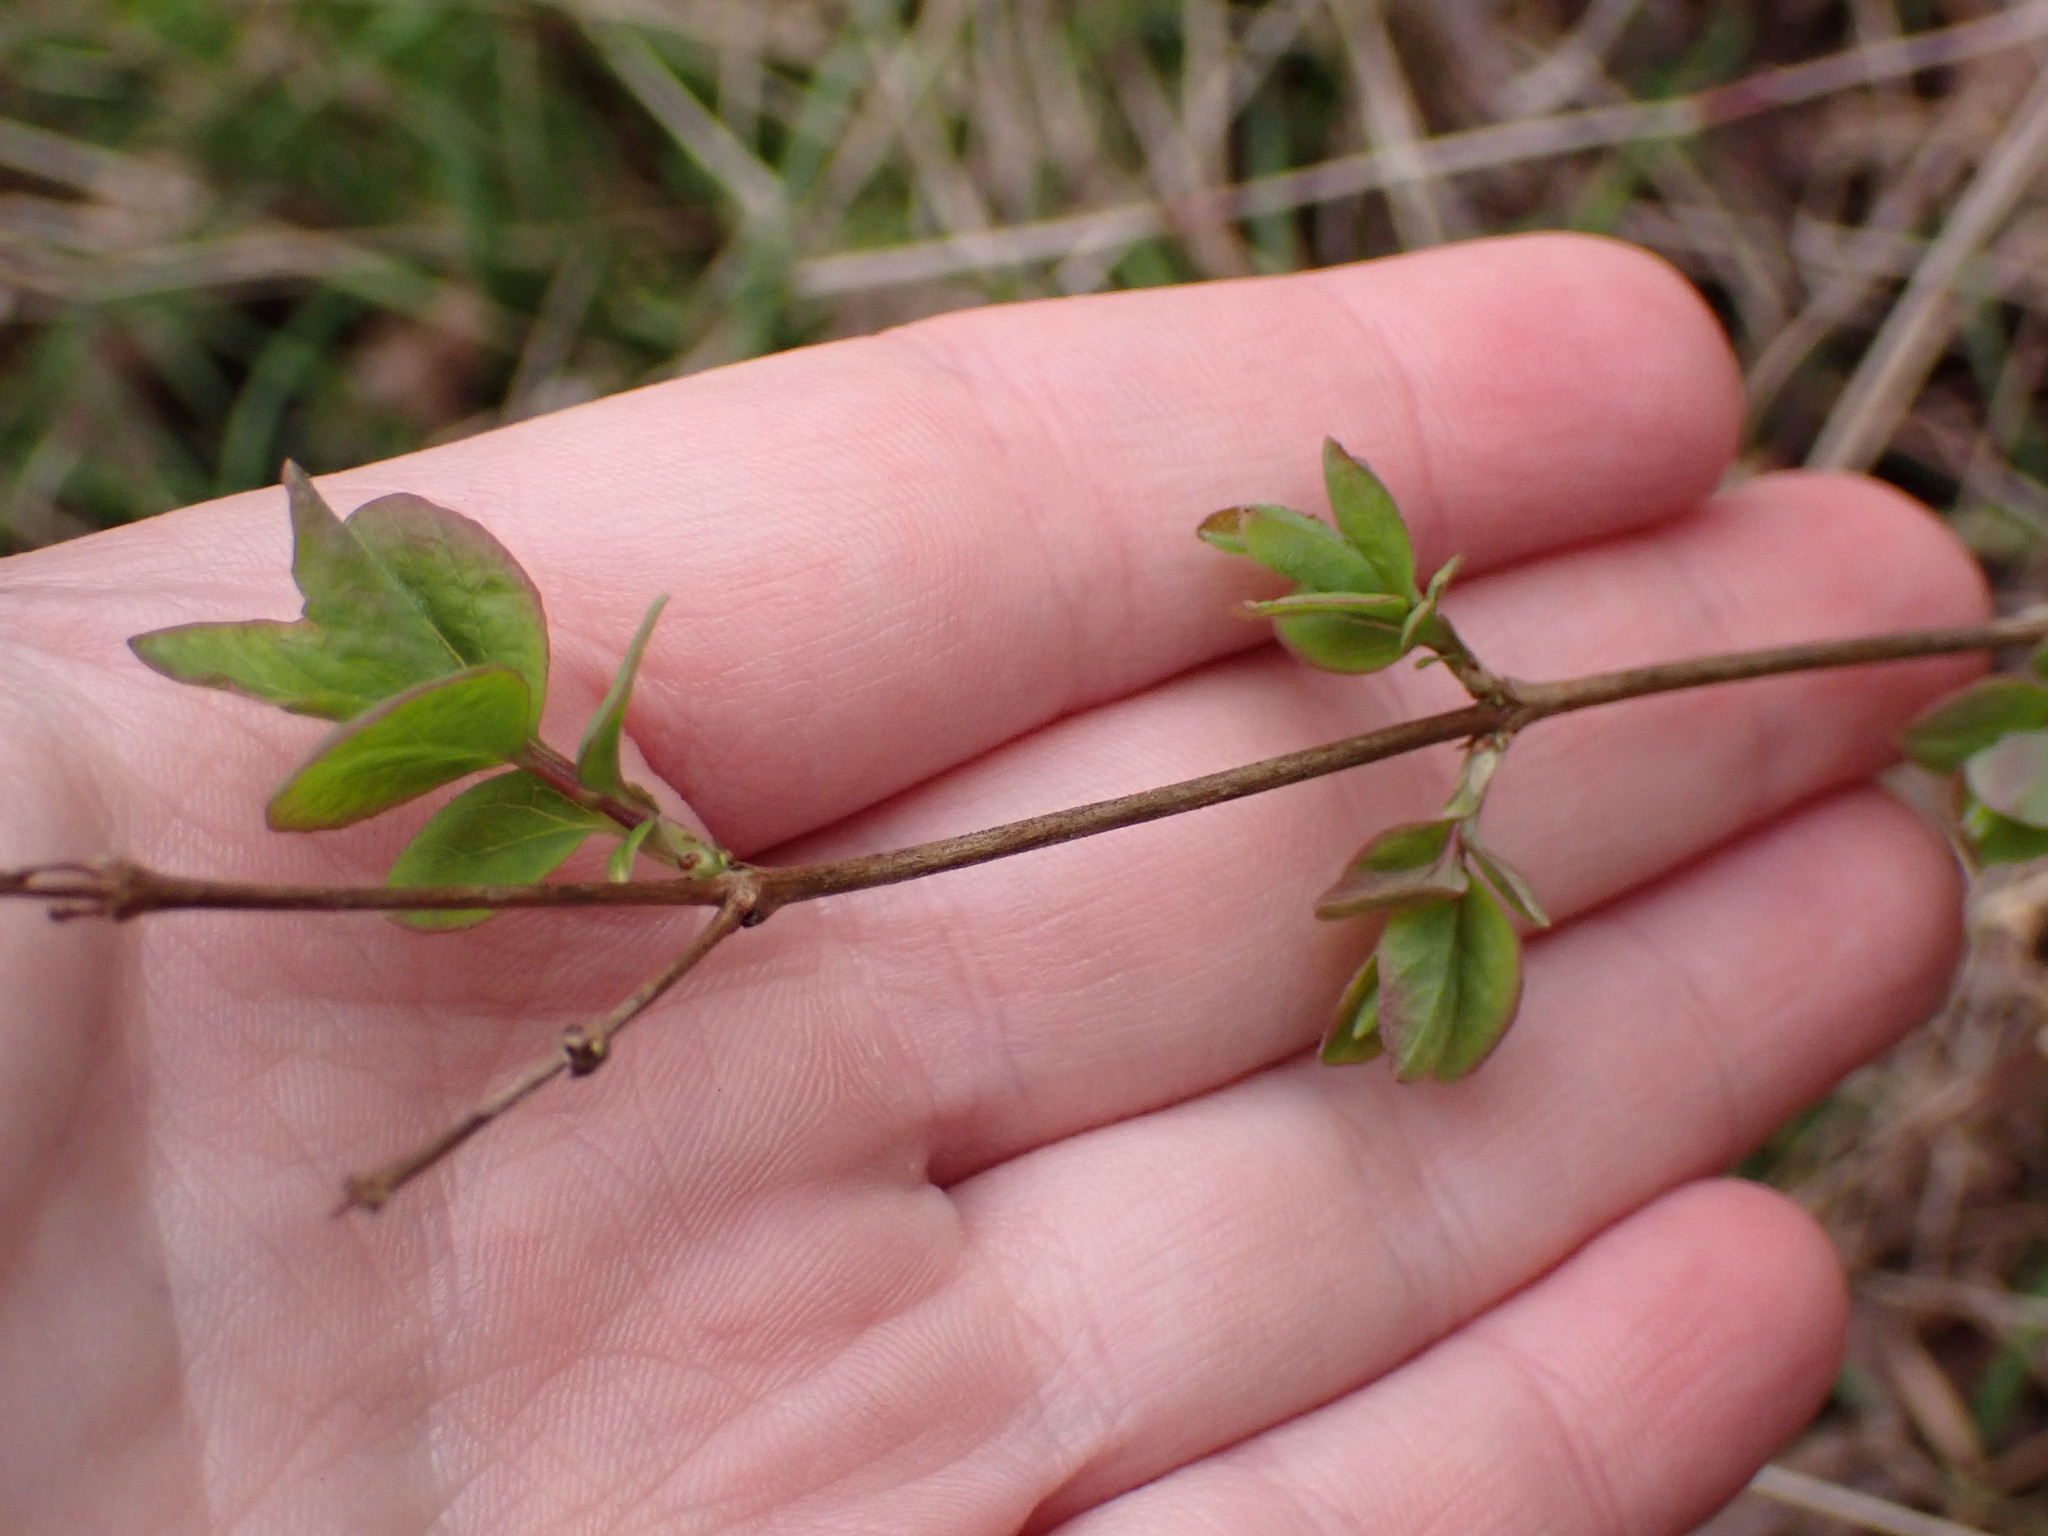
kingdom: Plantae
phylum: Tracheophyta
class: Magnoliopsida
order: Dipsacales
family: Caprifoliaceae
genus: Symphoricarpos
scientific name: Symphoricarpos albus
